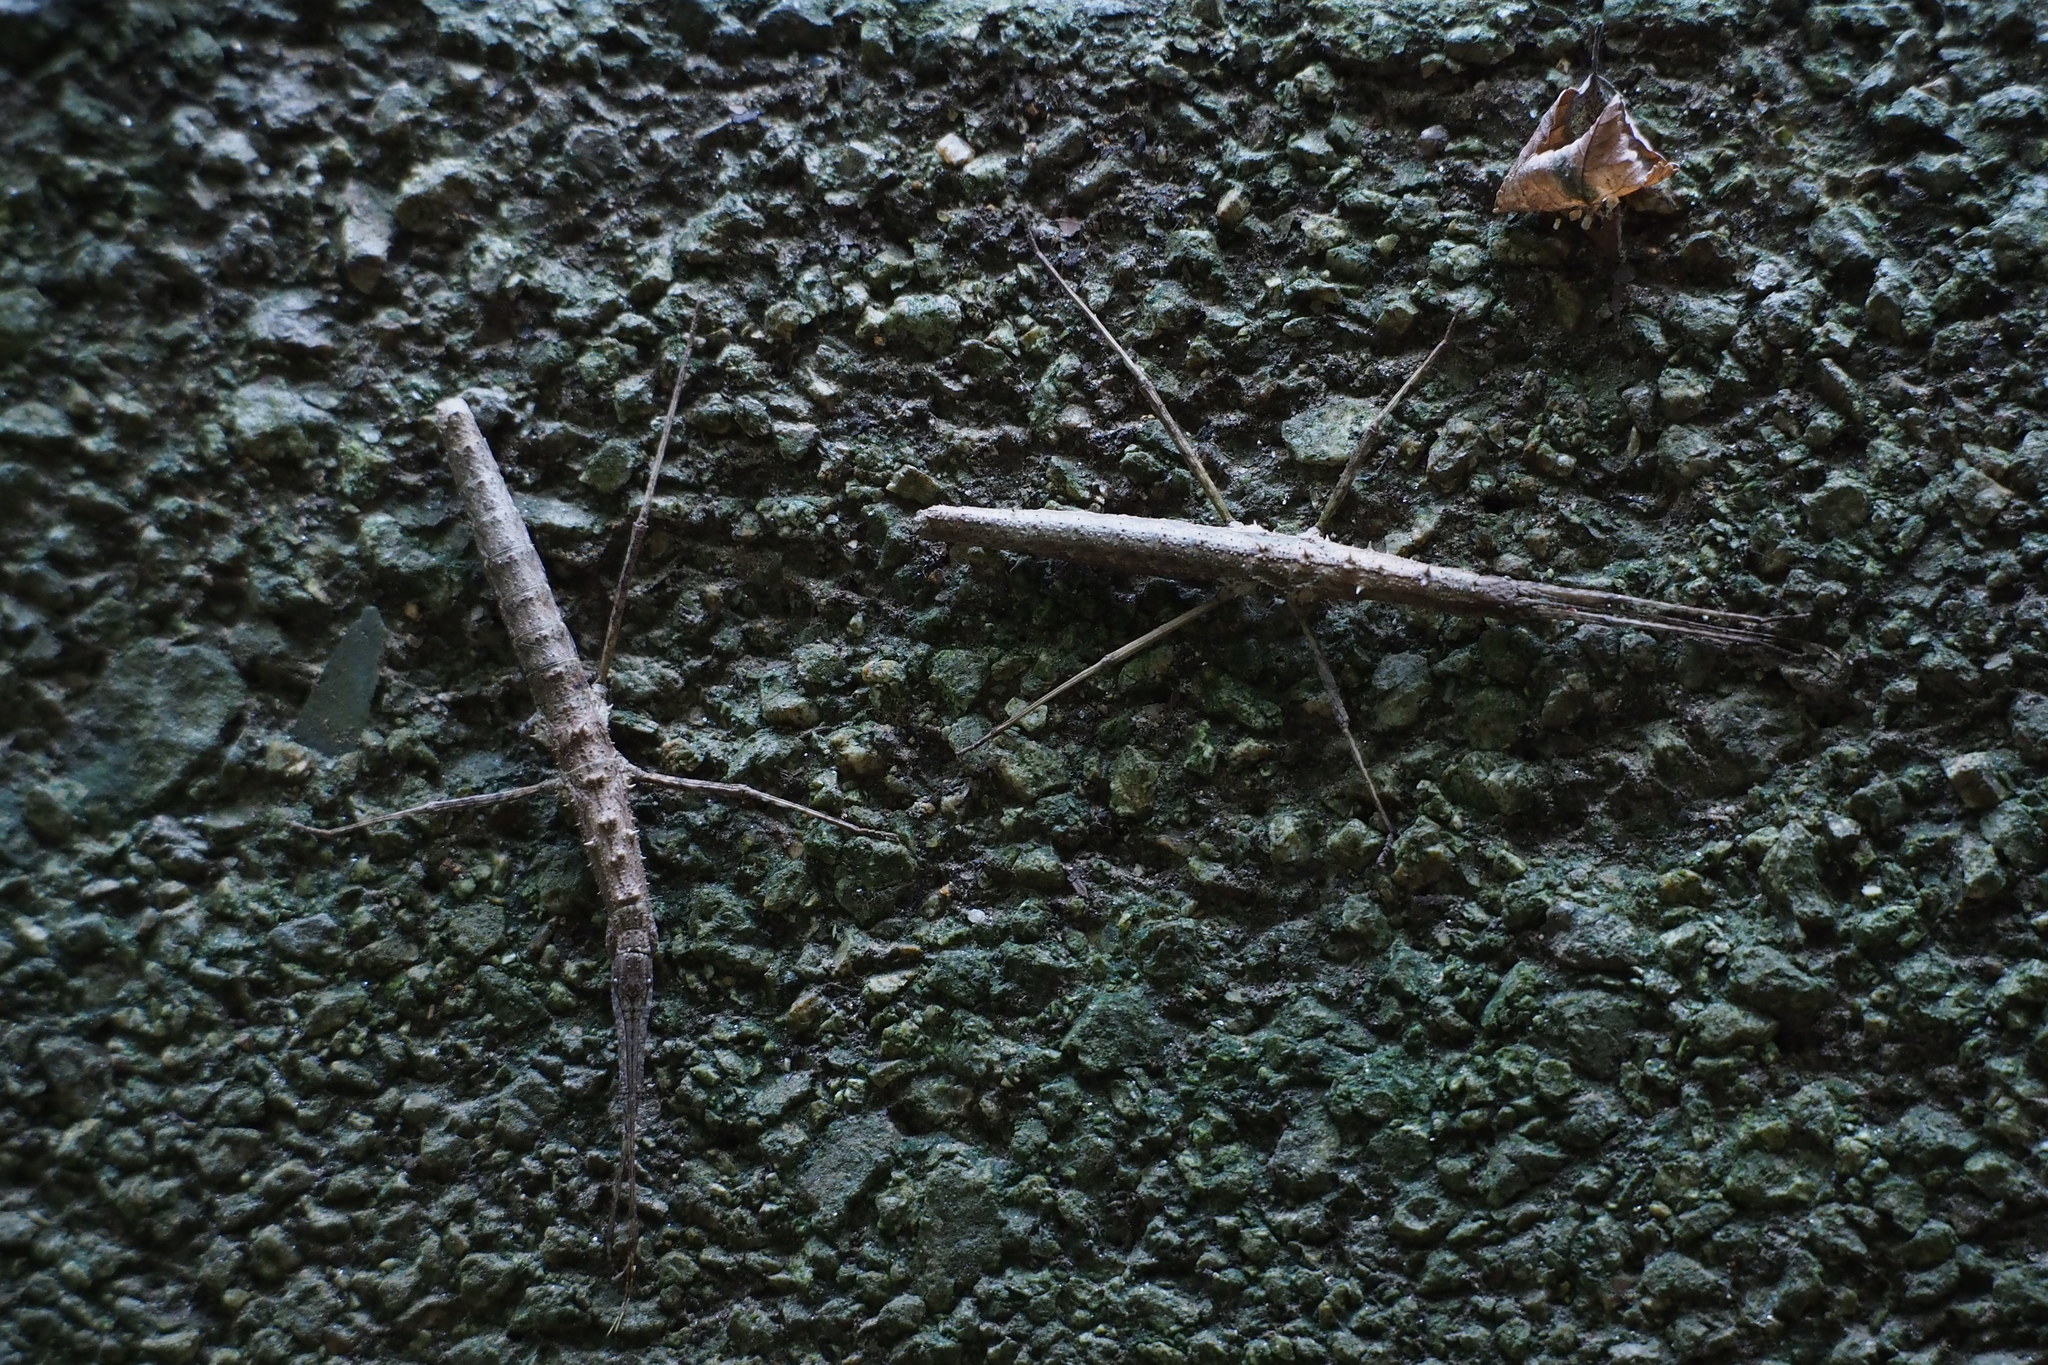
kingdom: Animalia
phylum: Arthropoda
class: Insecta
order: Phasmida
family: Lonchodidae
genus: Neohirasea
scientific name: Neohirasea japonica
